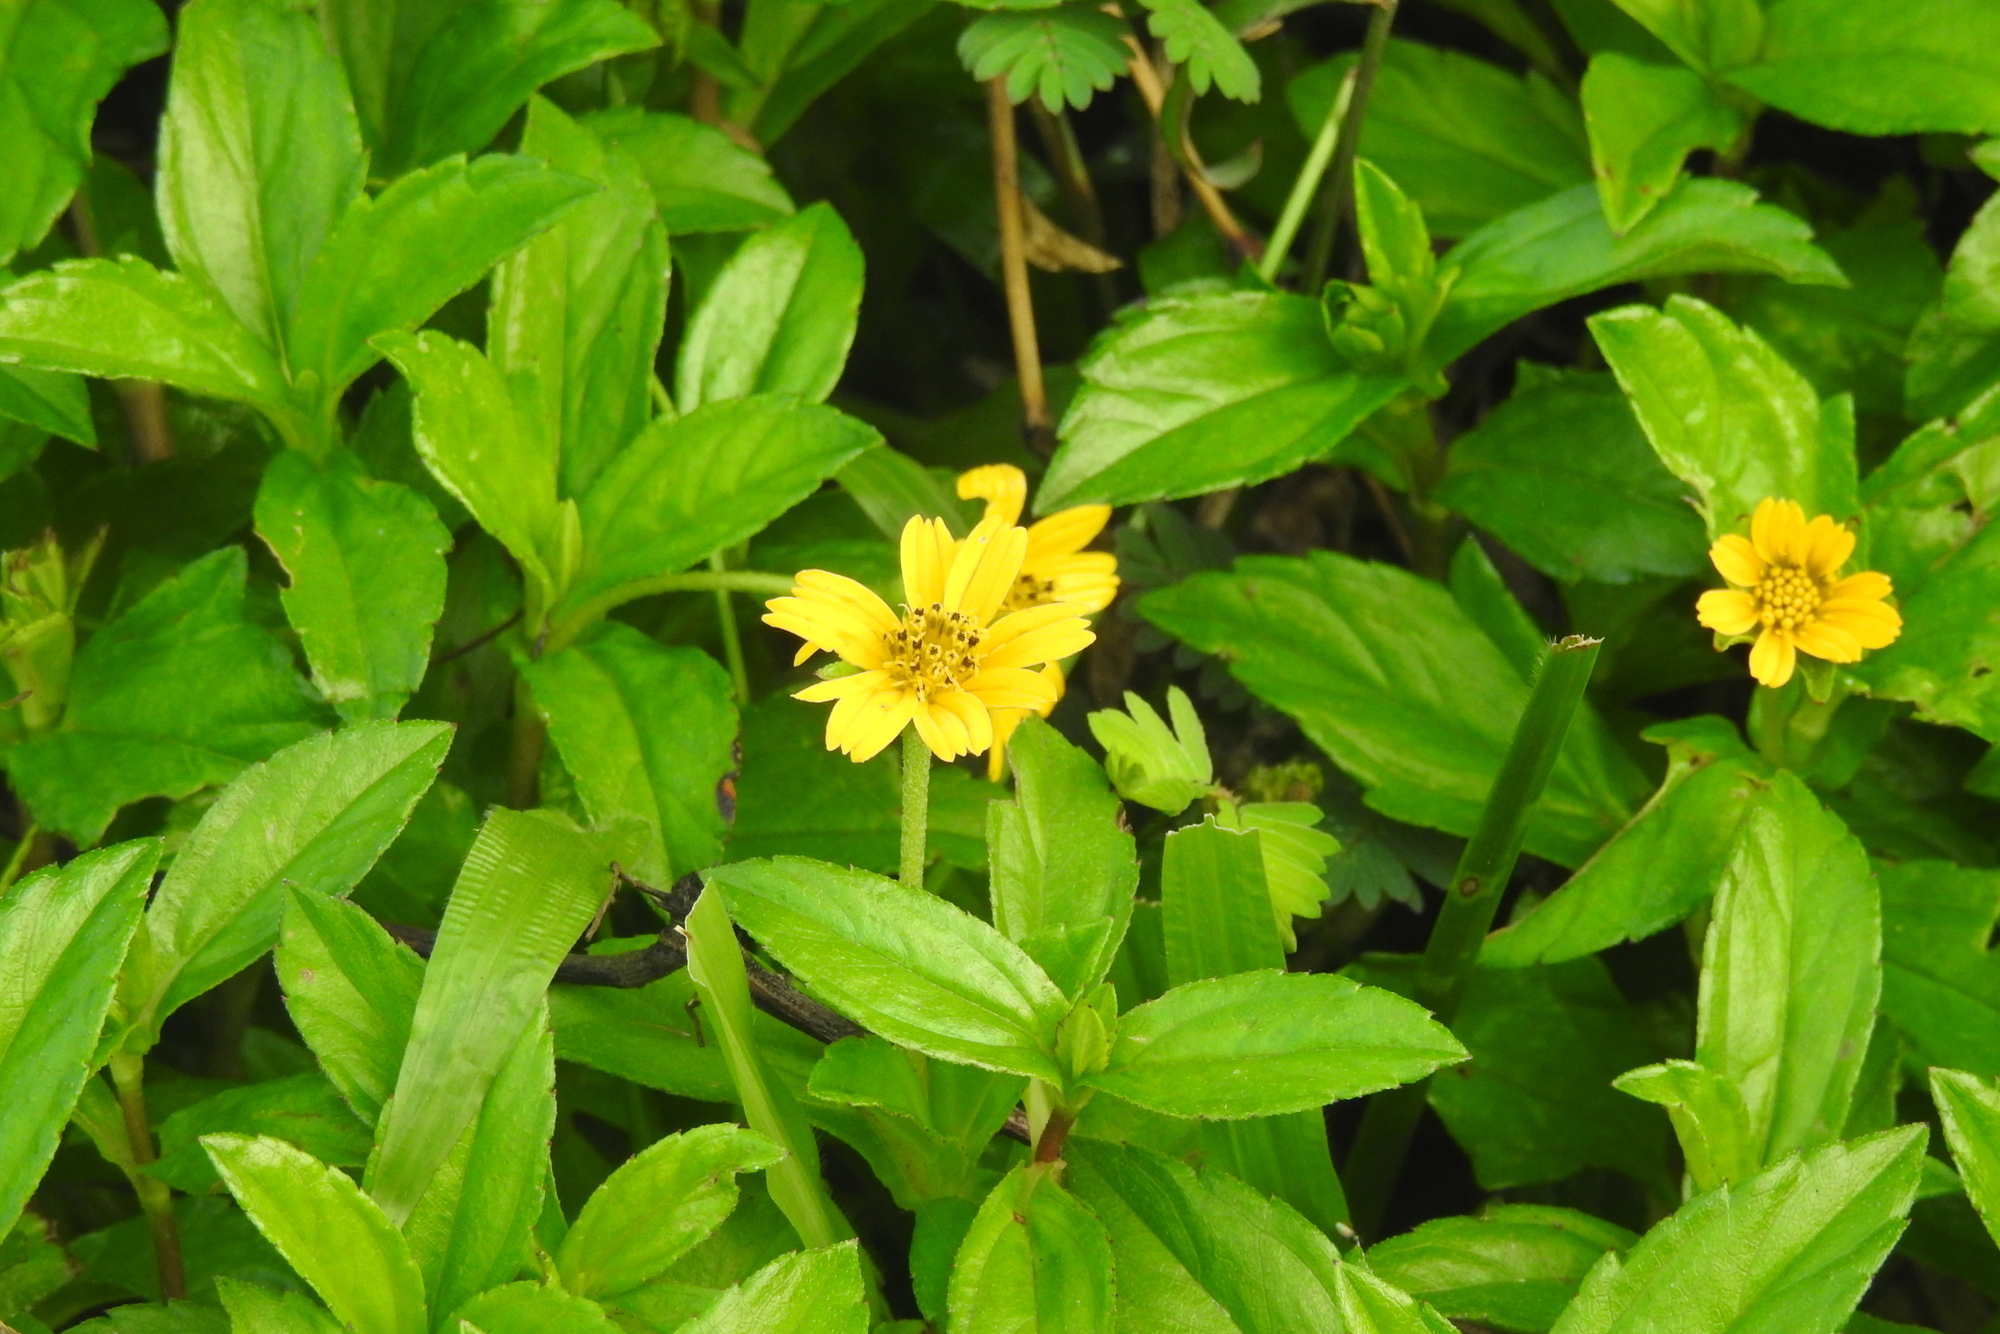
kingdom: Plantae
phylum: Tracheophyta
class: Magnoliopsida
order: Asterales
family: Asteraceae
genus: Sphagneticola
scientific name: Sphagneticola trilobata
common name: Bay biscayne creeping-oxeye
